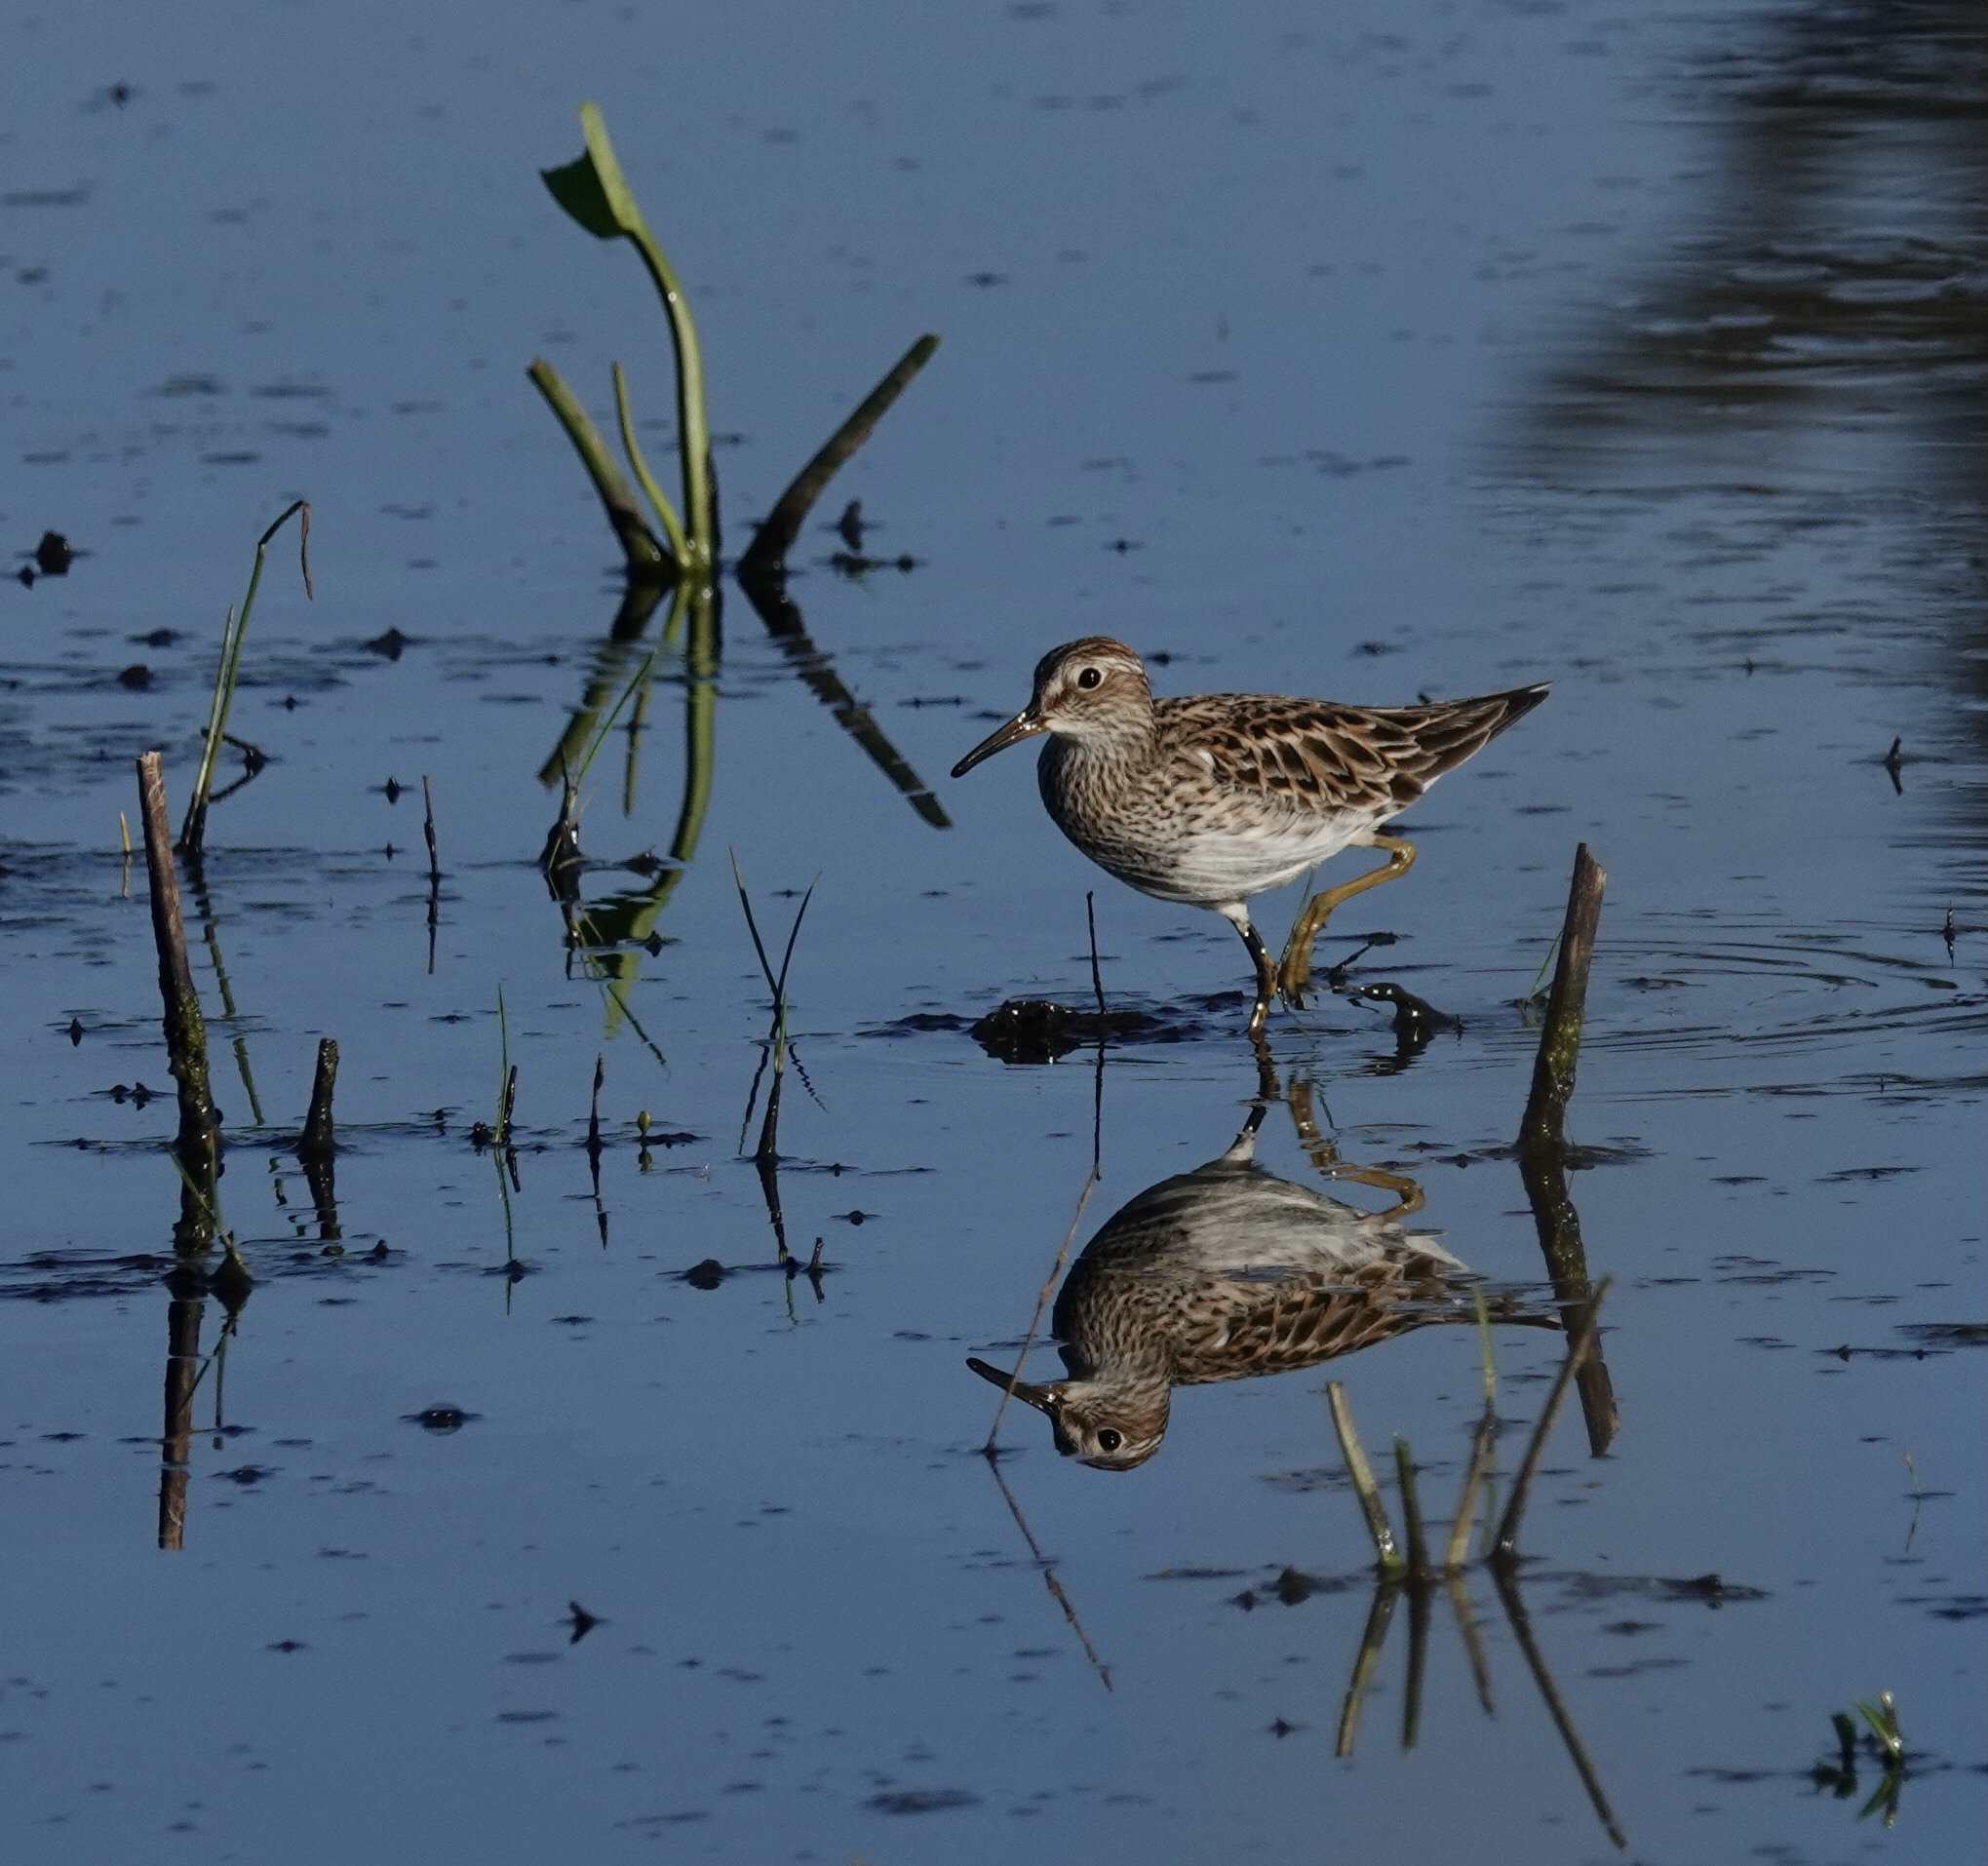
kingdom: Animalia
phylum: Chordata
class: Aves
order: Charadriiformes
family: Scolopacidae
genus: Calidris
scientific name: Calidris melanotos
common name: Pectoral sandpiper
